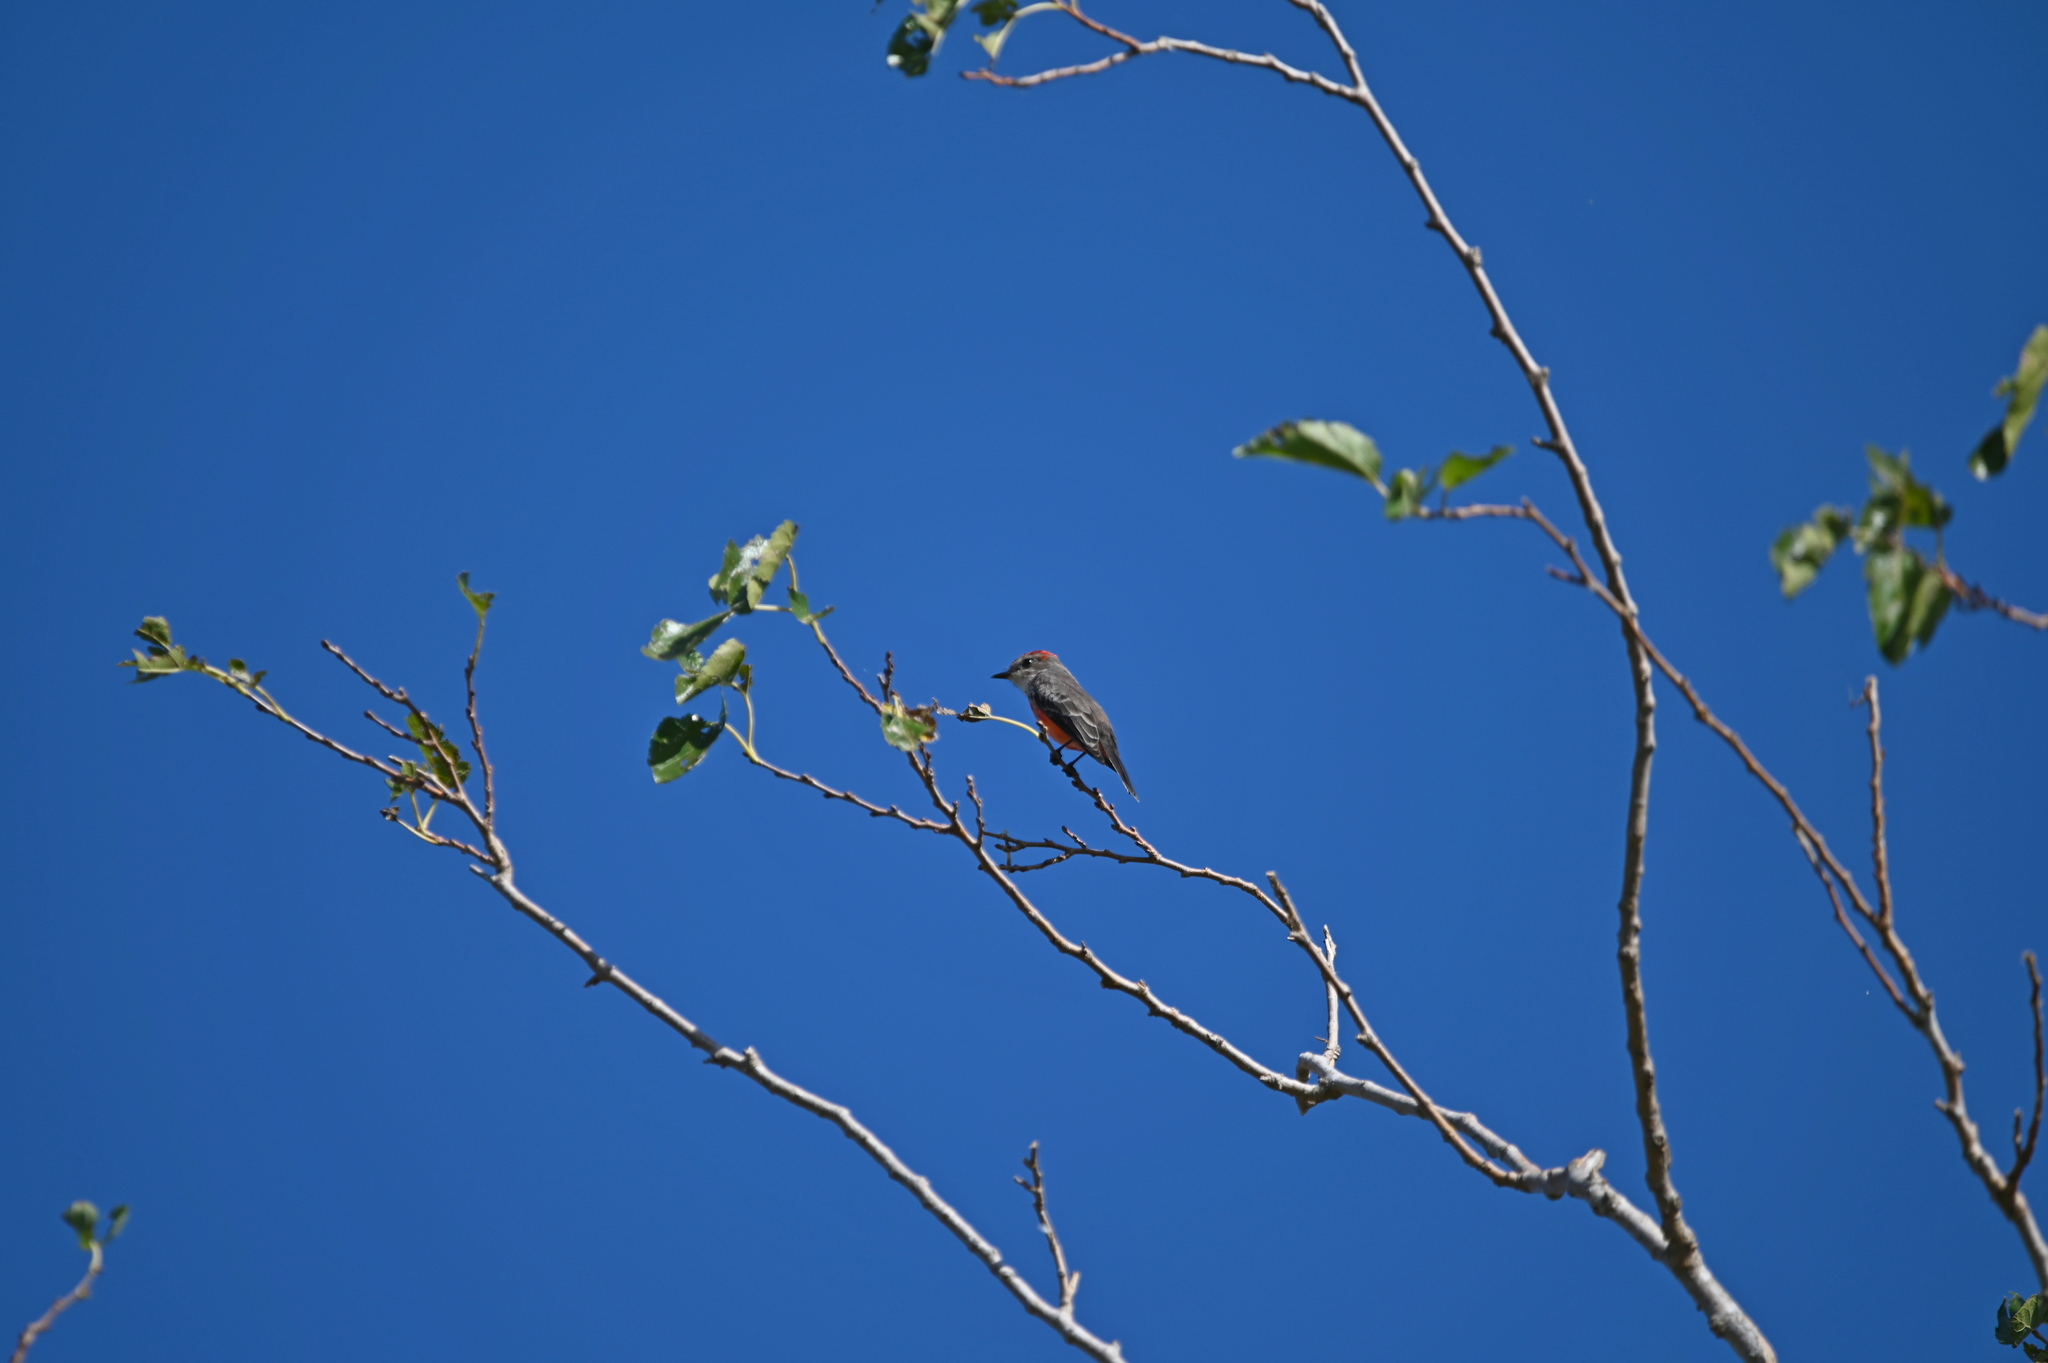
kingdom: Animalia
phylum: Chordata
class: Aves
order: Passeriformes
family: Tyrannidae
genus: Pyrocephalus
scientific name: Pyrocephalus rubinus
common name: Vermilion flycatcher
